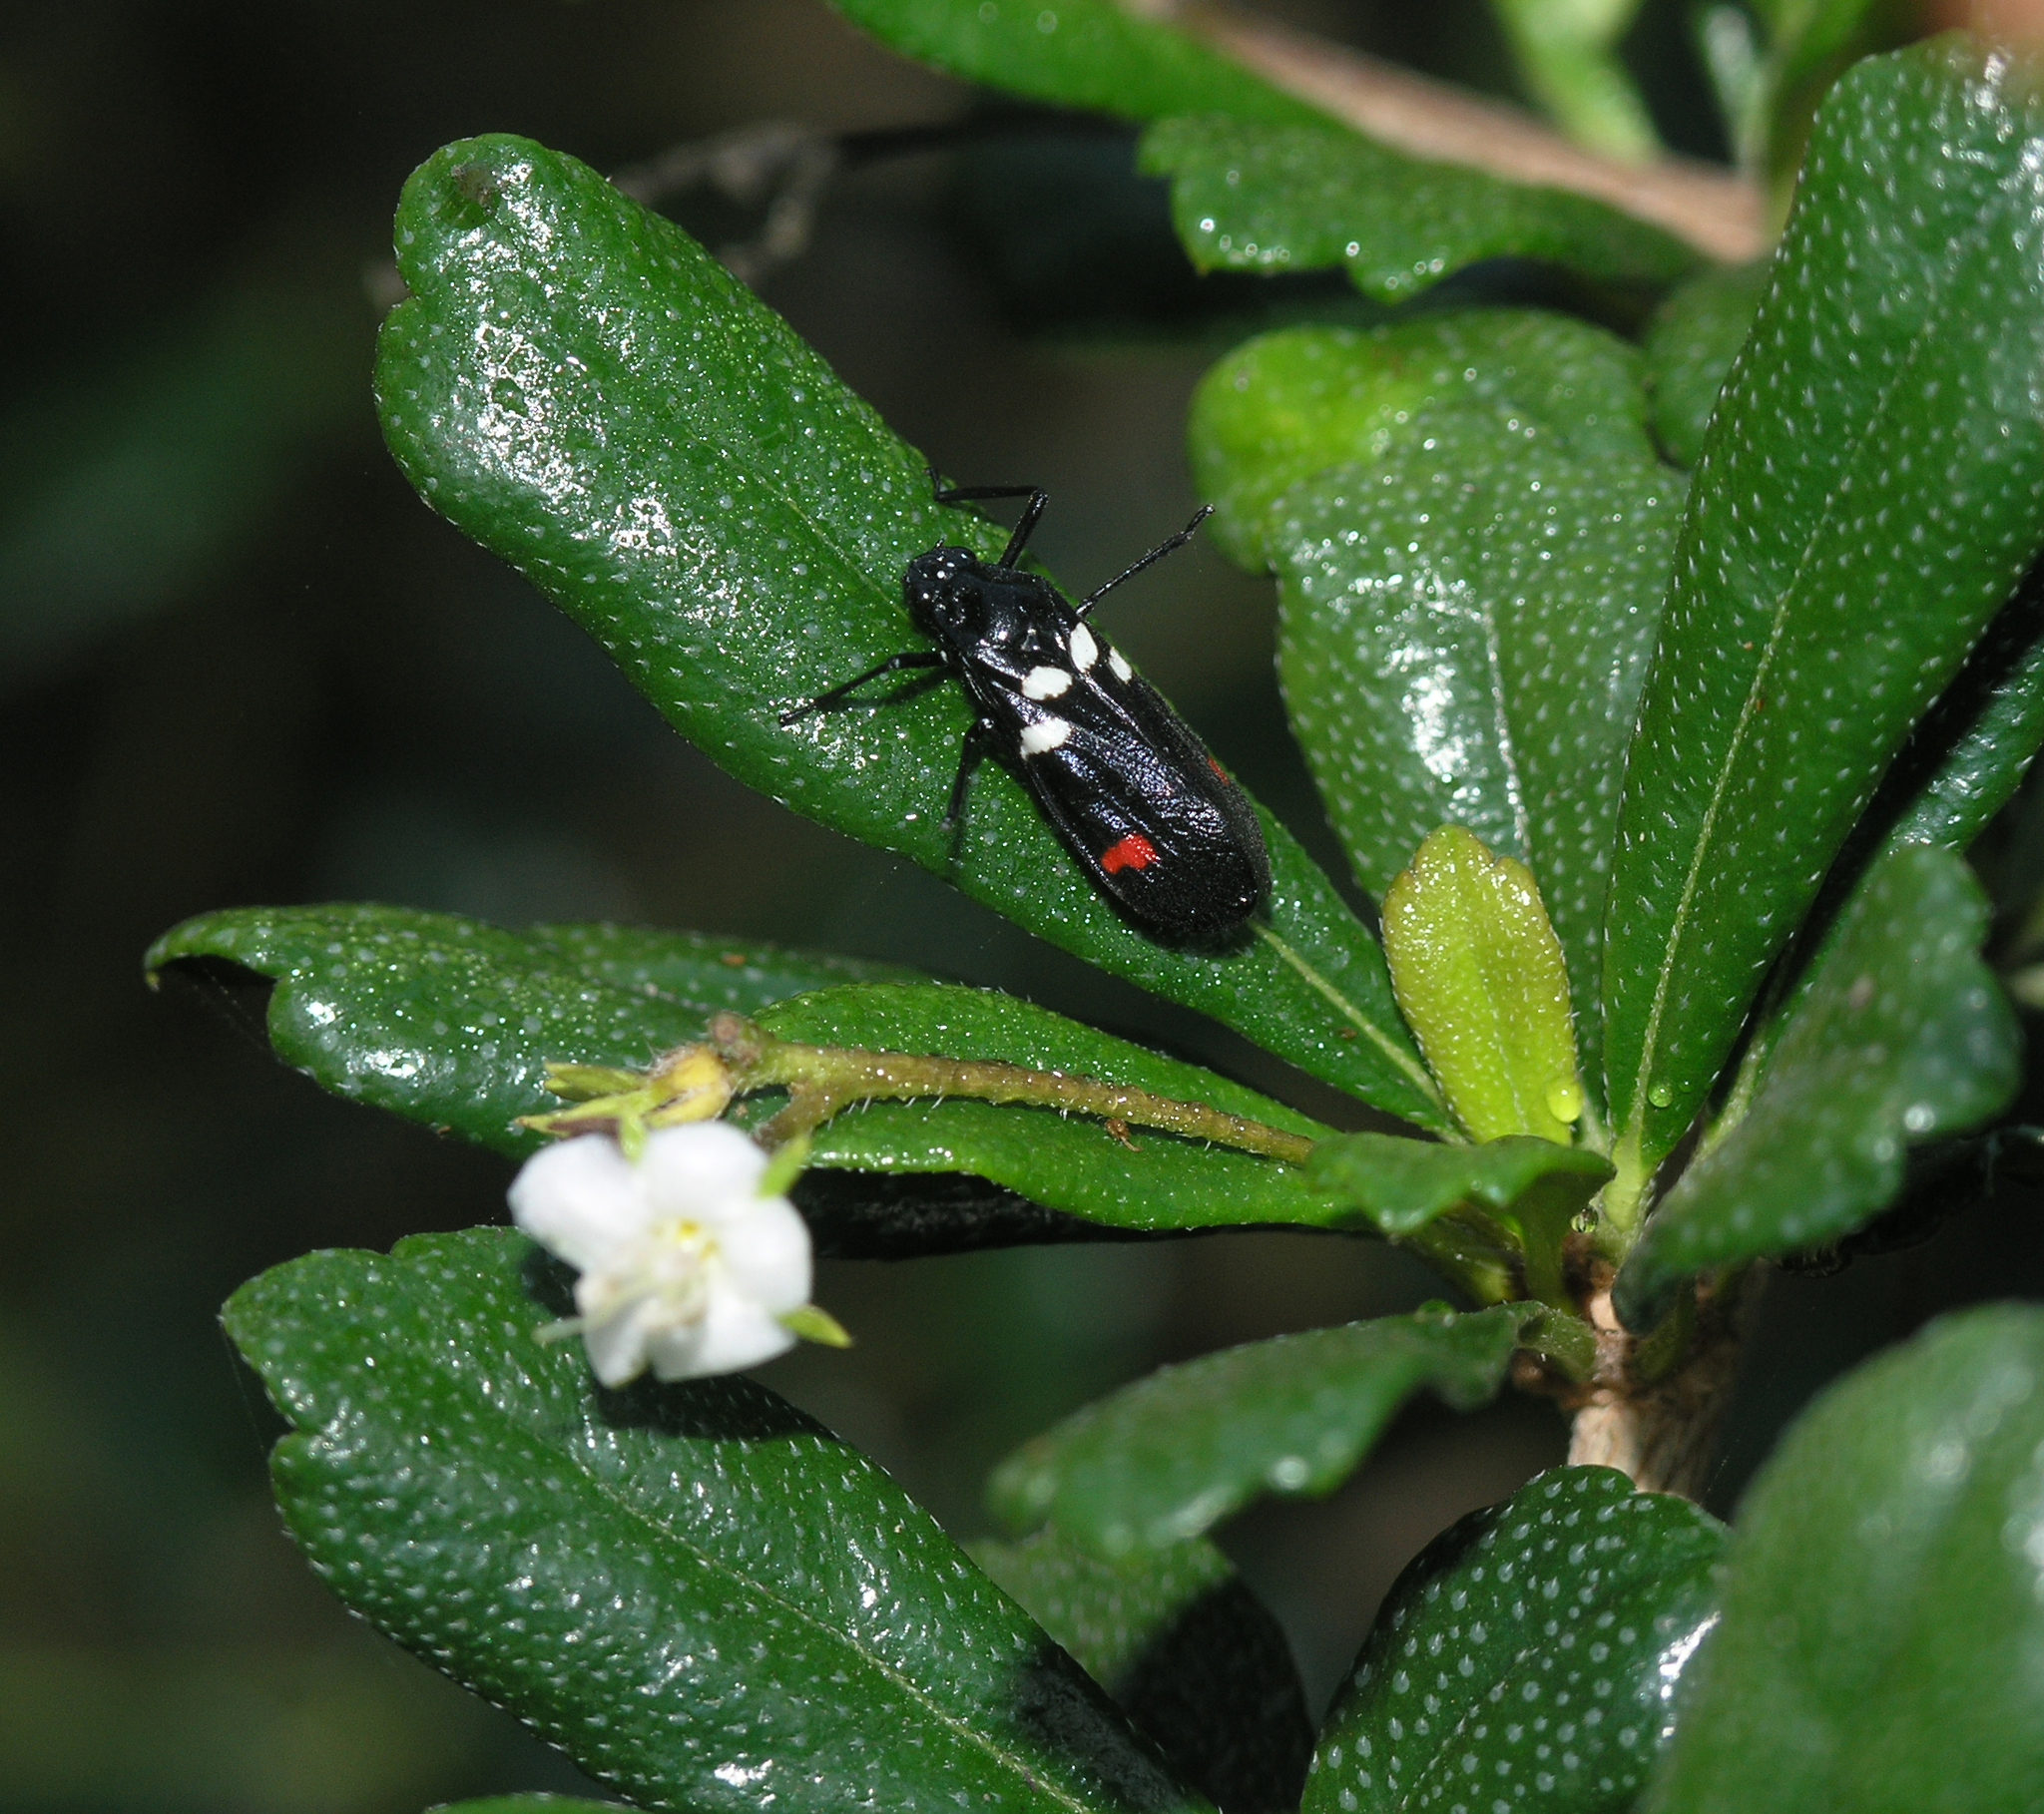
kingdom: Animalia
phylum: Arthropoda
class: Insecta
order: Hemiptera
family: Cercopidae
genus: Callitettix
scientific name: Callitettix versicolor
